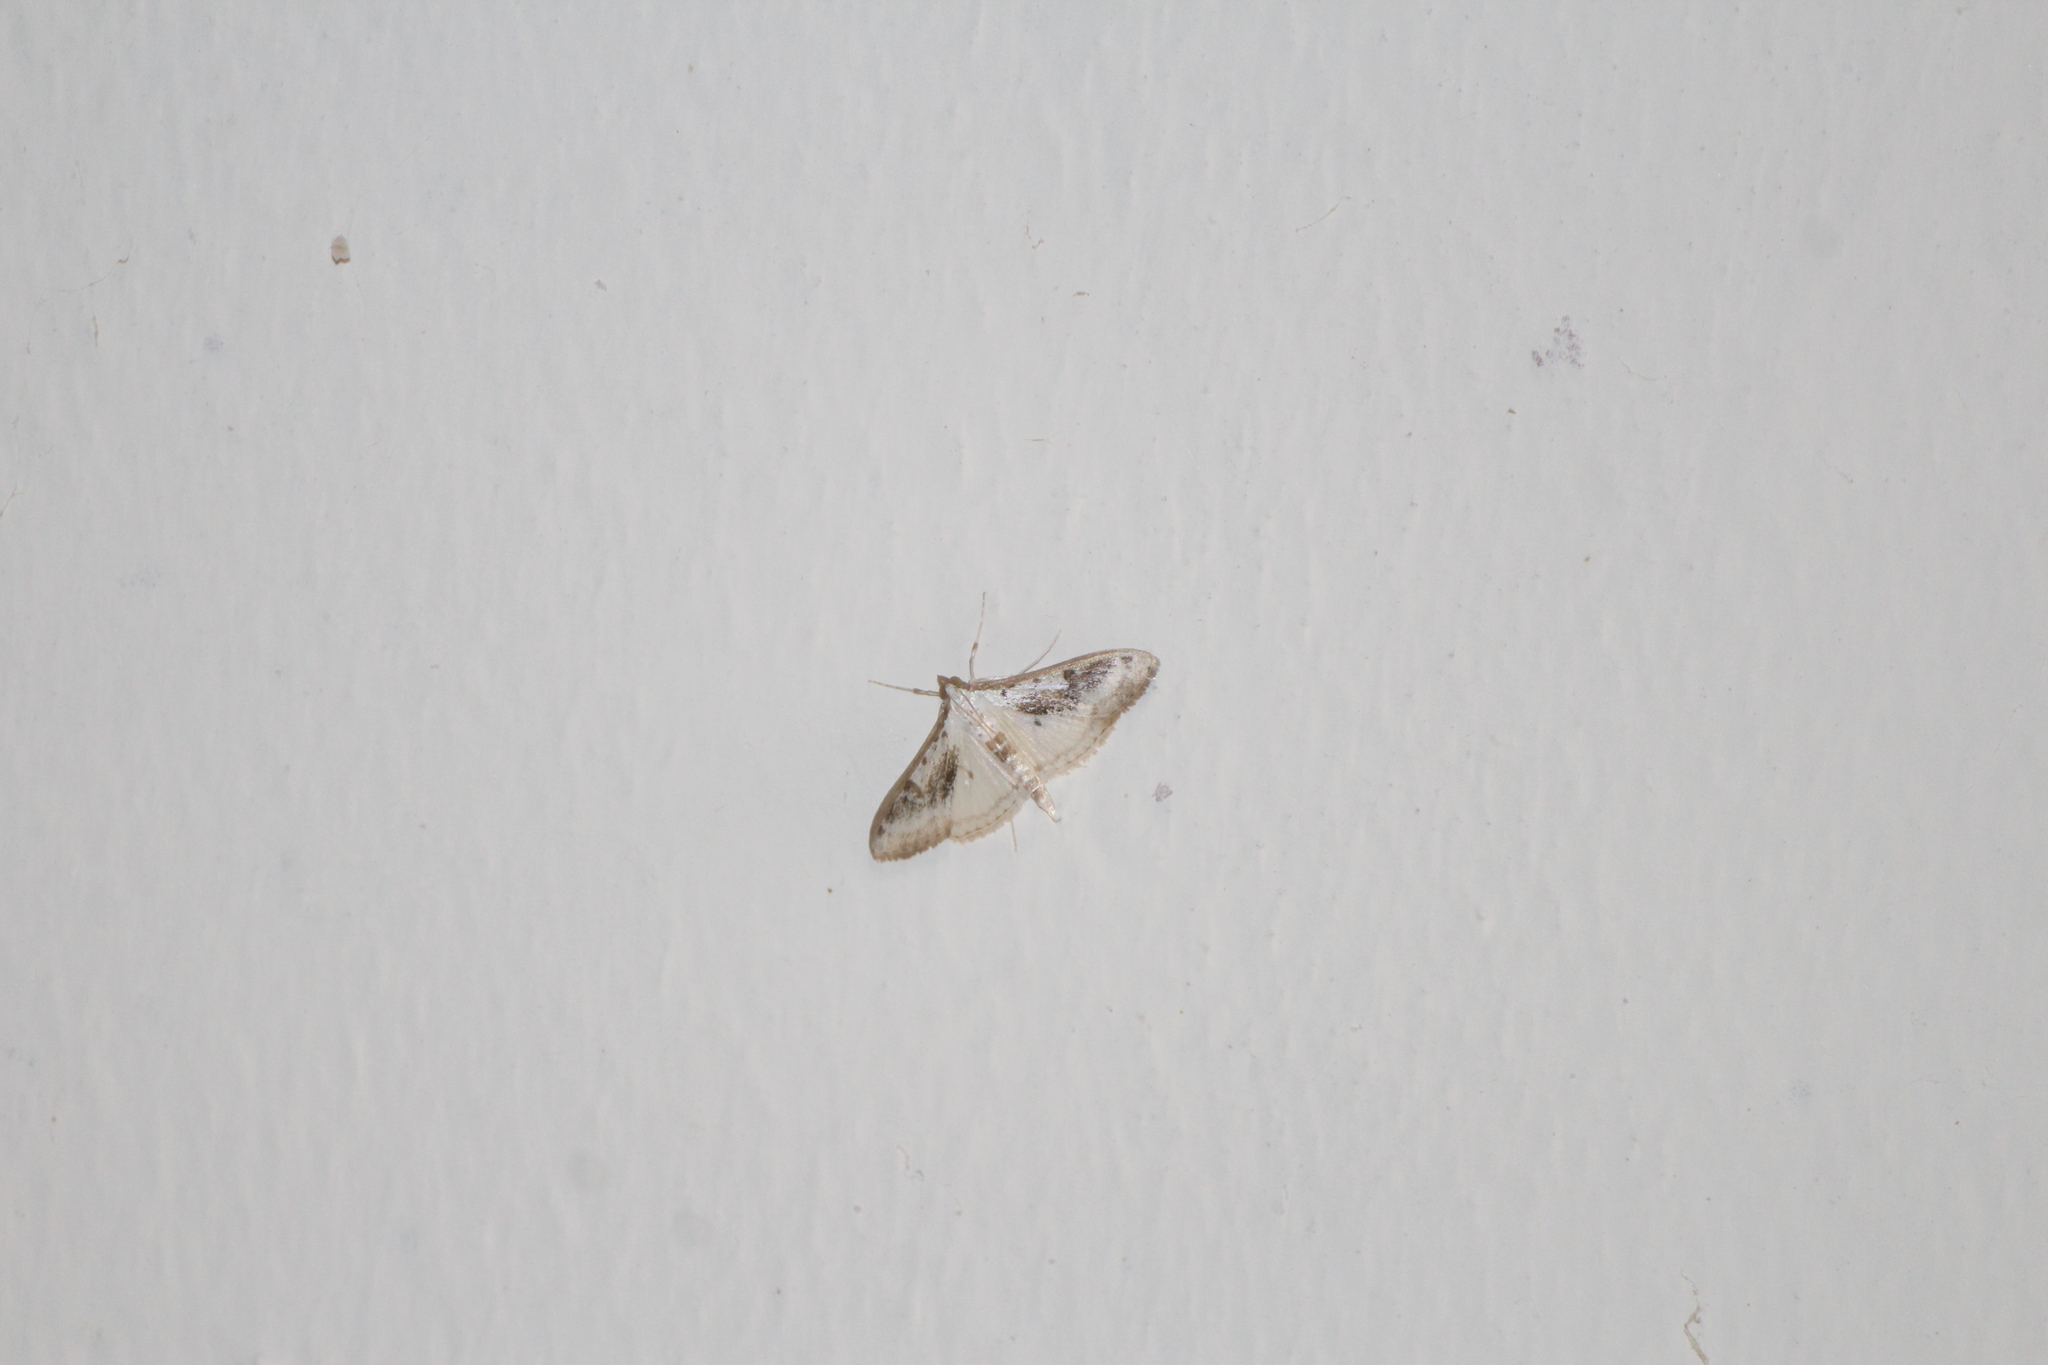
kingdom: Animalia
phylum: Arthropoda
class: Insecta
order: Lepidoptera
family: Crambidae
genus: Palpita
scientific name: Palpita gracilalis
